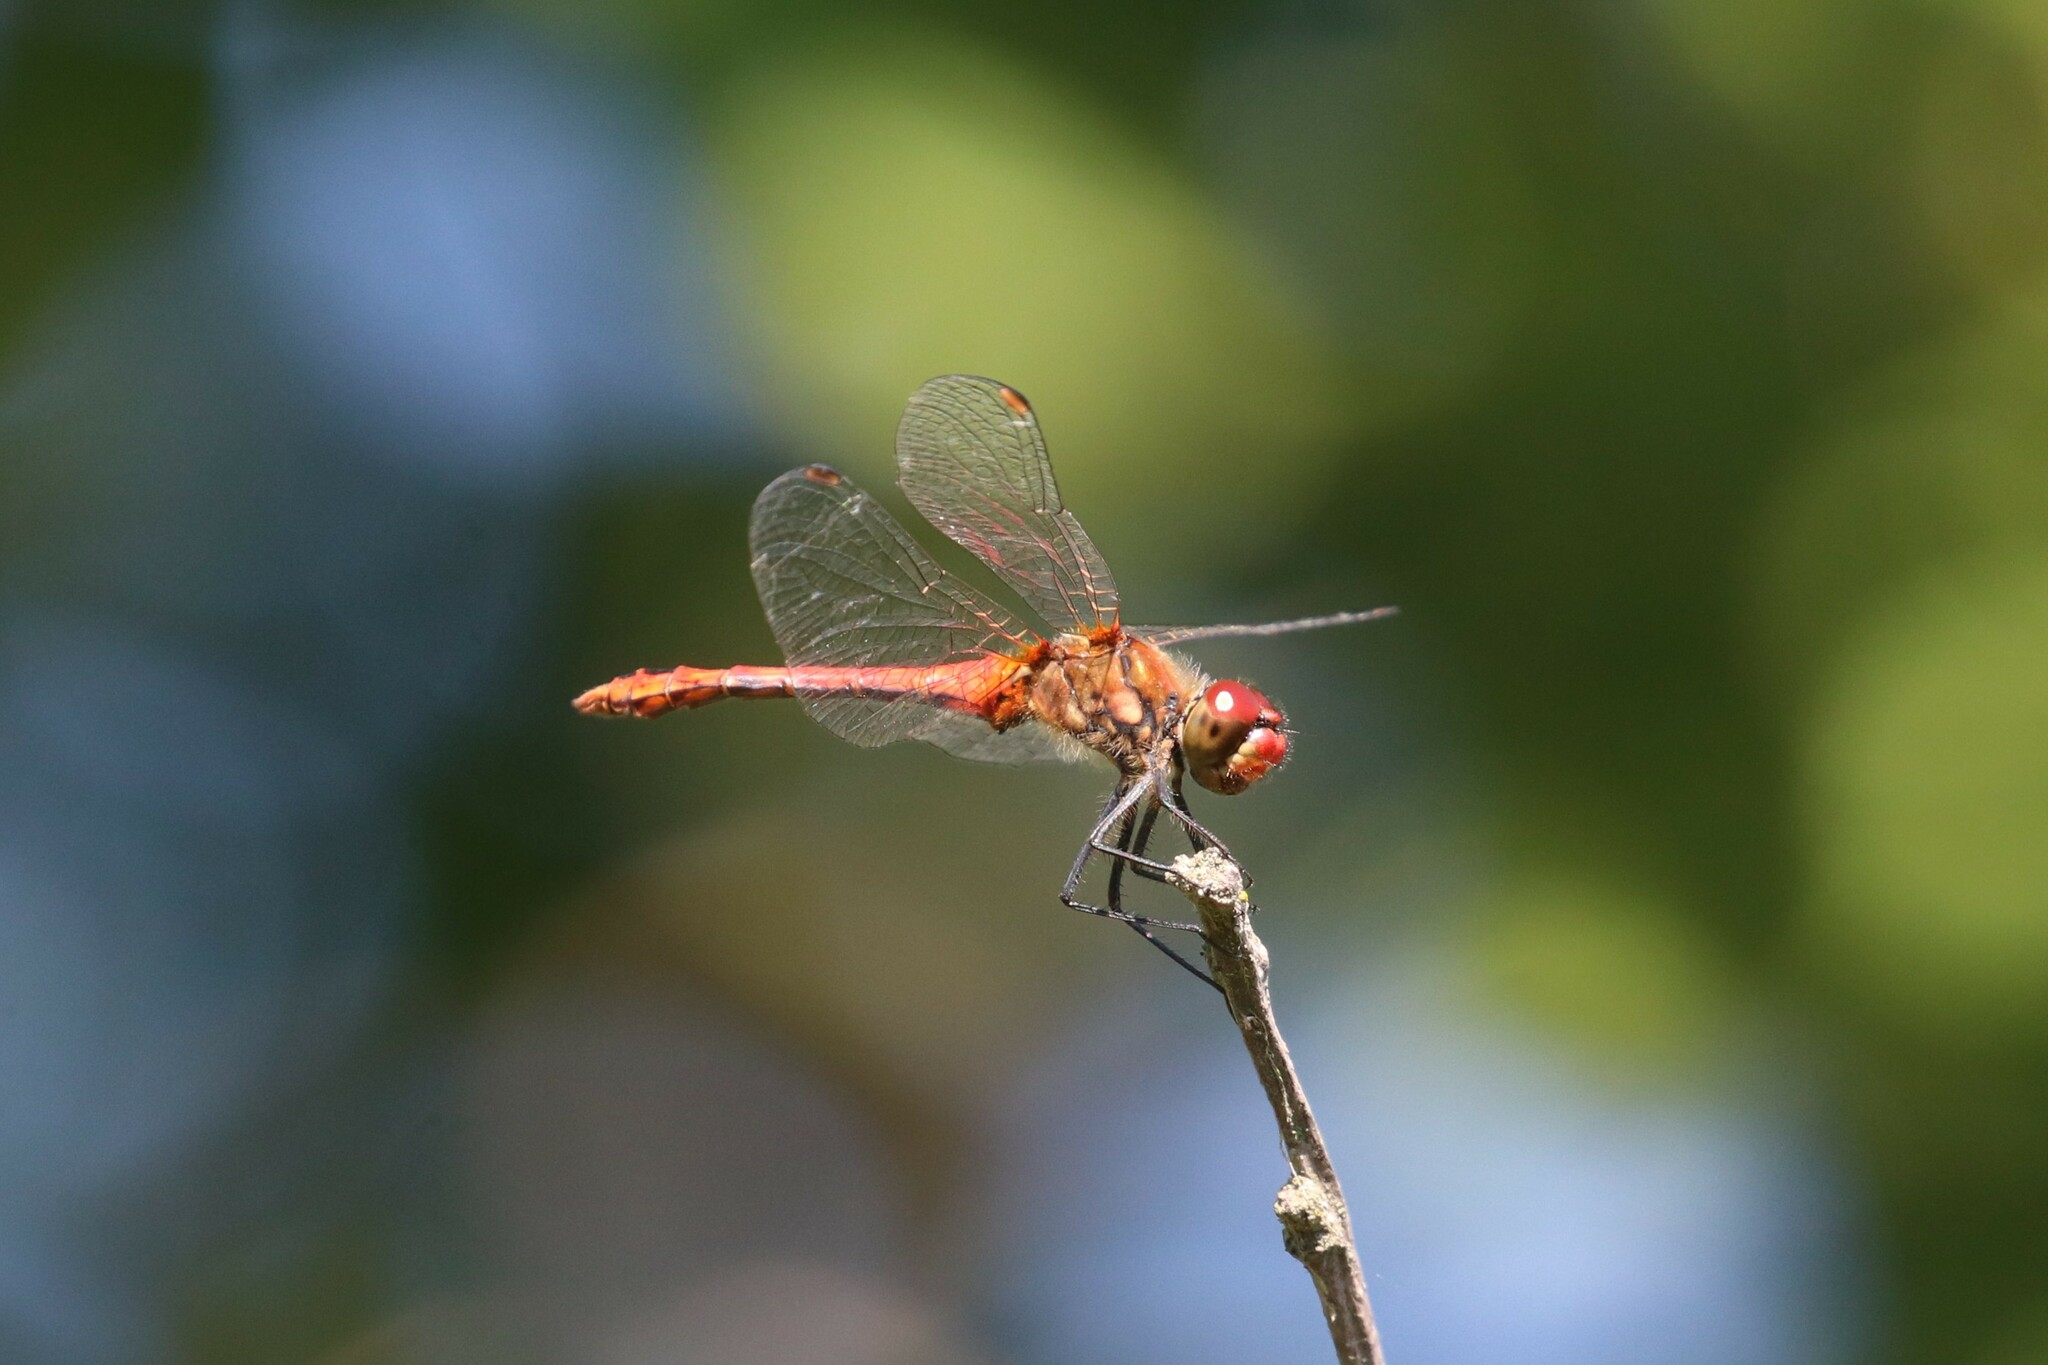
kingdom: Animalia
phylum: Arthropoda
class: Insecta
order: Odonata
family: Libellulidae
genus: Sympetrum
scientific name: Sympetrum sanguineum
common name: Ruddy darter
